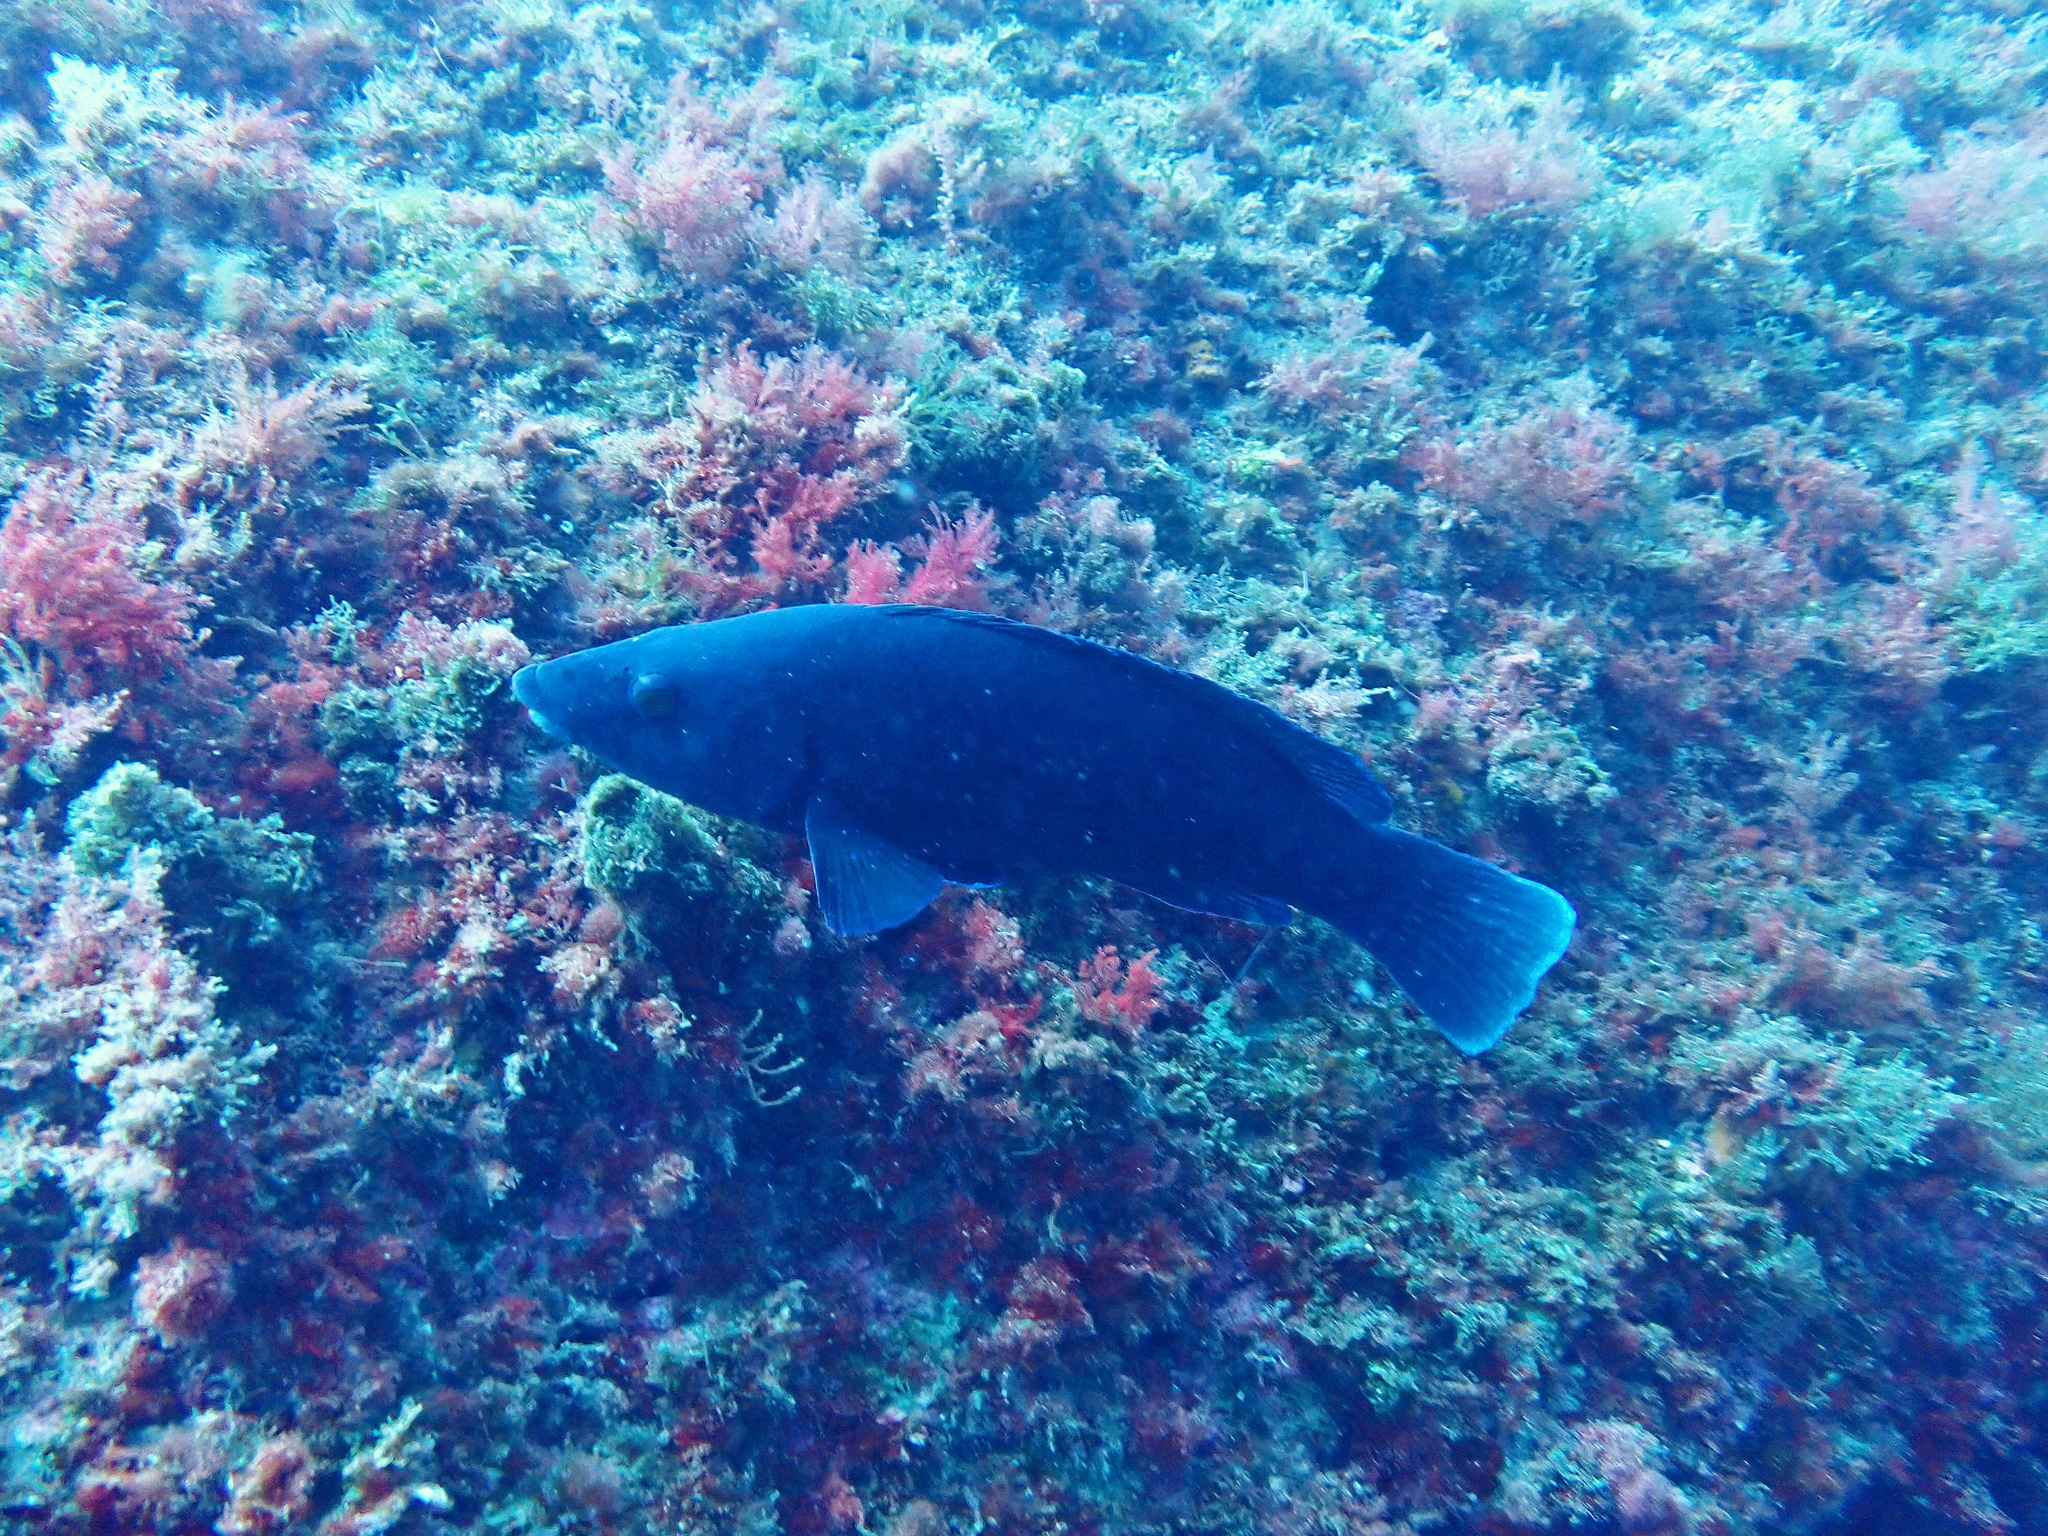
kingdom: Animalia
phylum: Chordata
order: Perciformes
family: Labridae
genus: Labrus
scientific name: Labrus merula
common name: Brown wrasse
